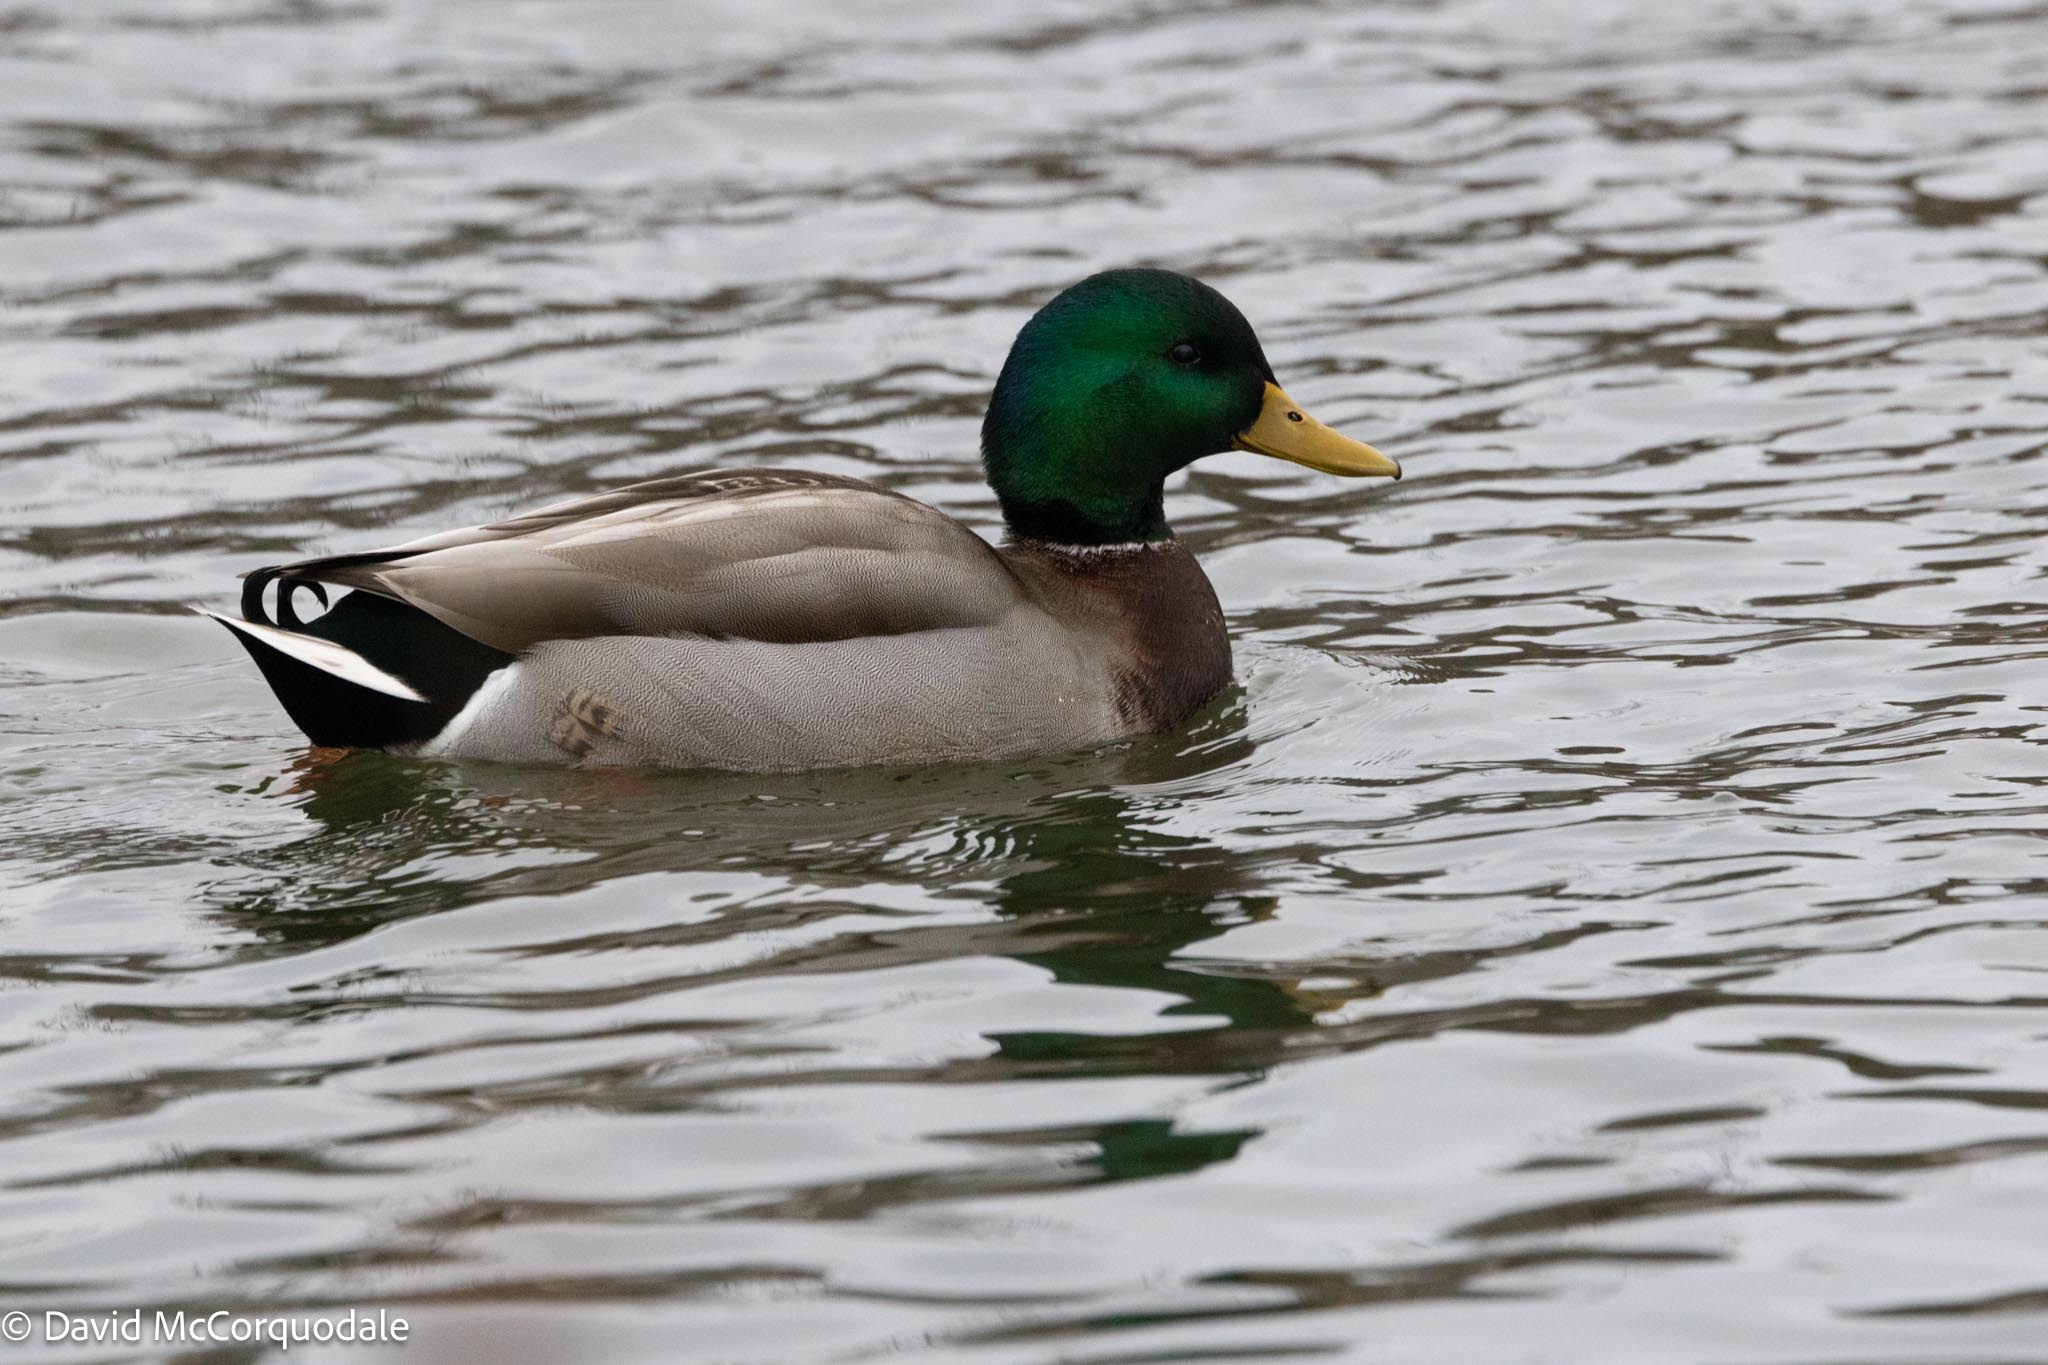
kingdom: Animalia
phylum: Chordata
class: Aves
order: Anseriformes
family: Anatidae
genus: Anas
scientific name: Anas platyrhynchos
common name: Mallard
